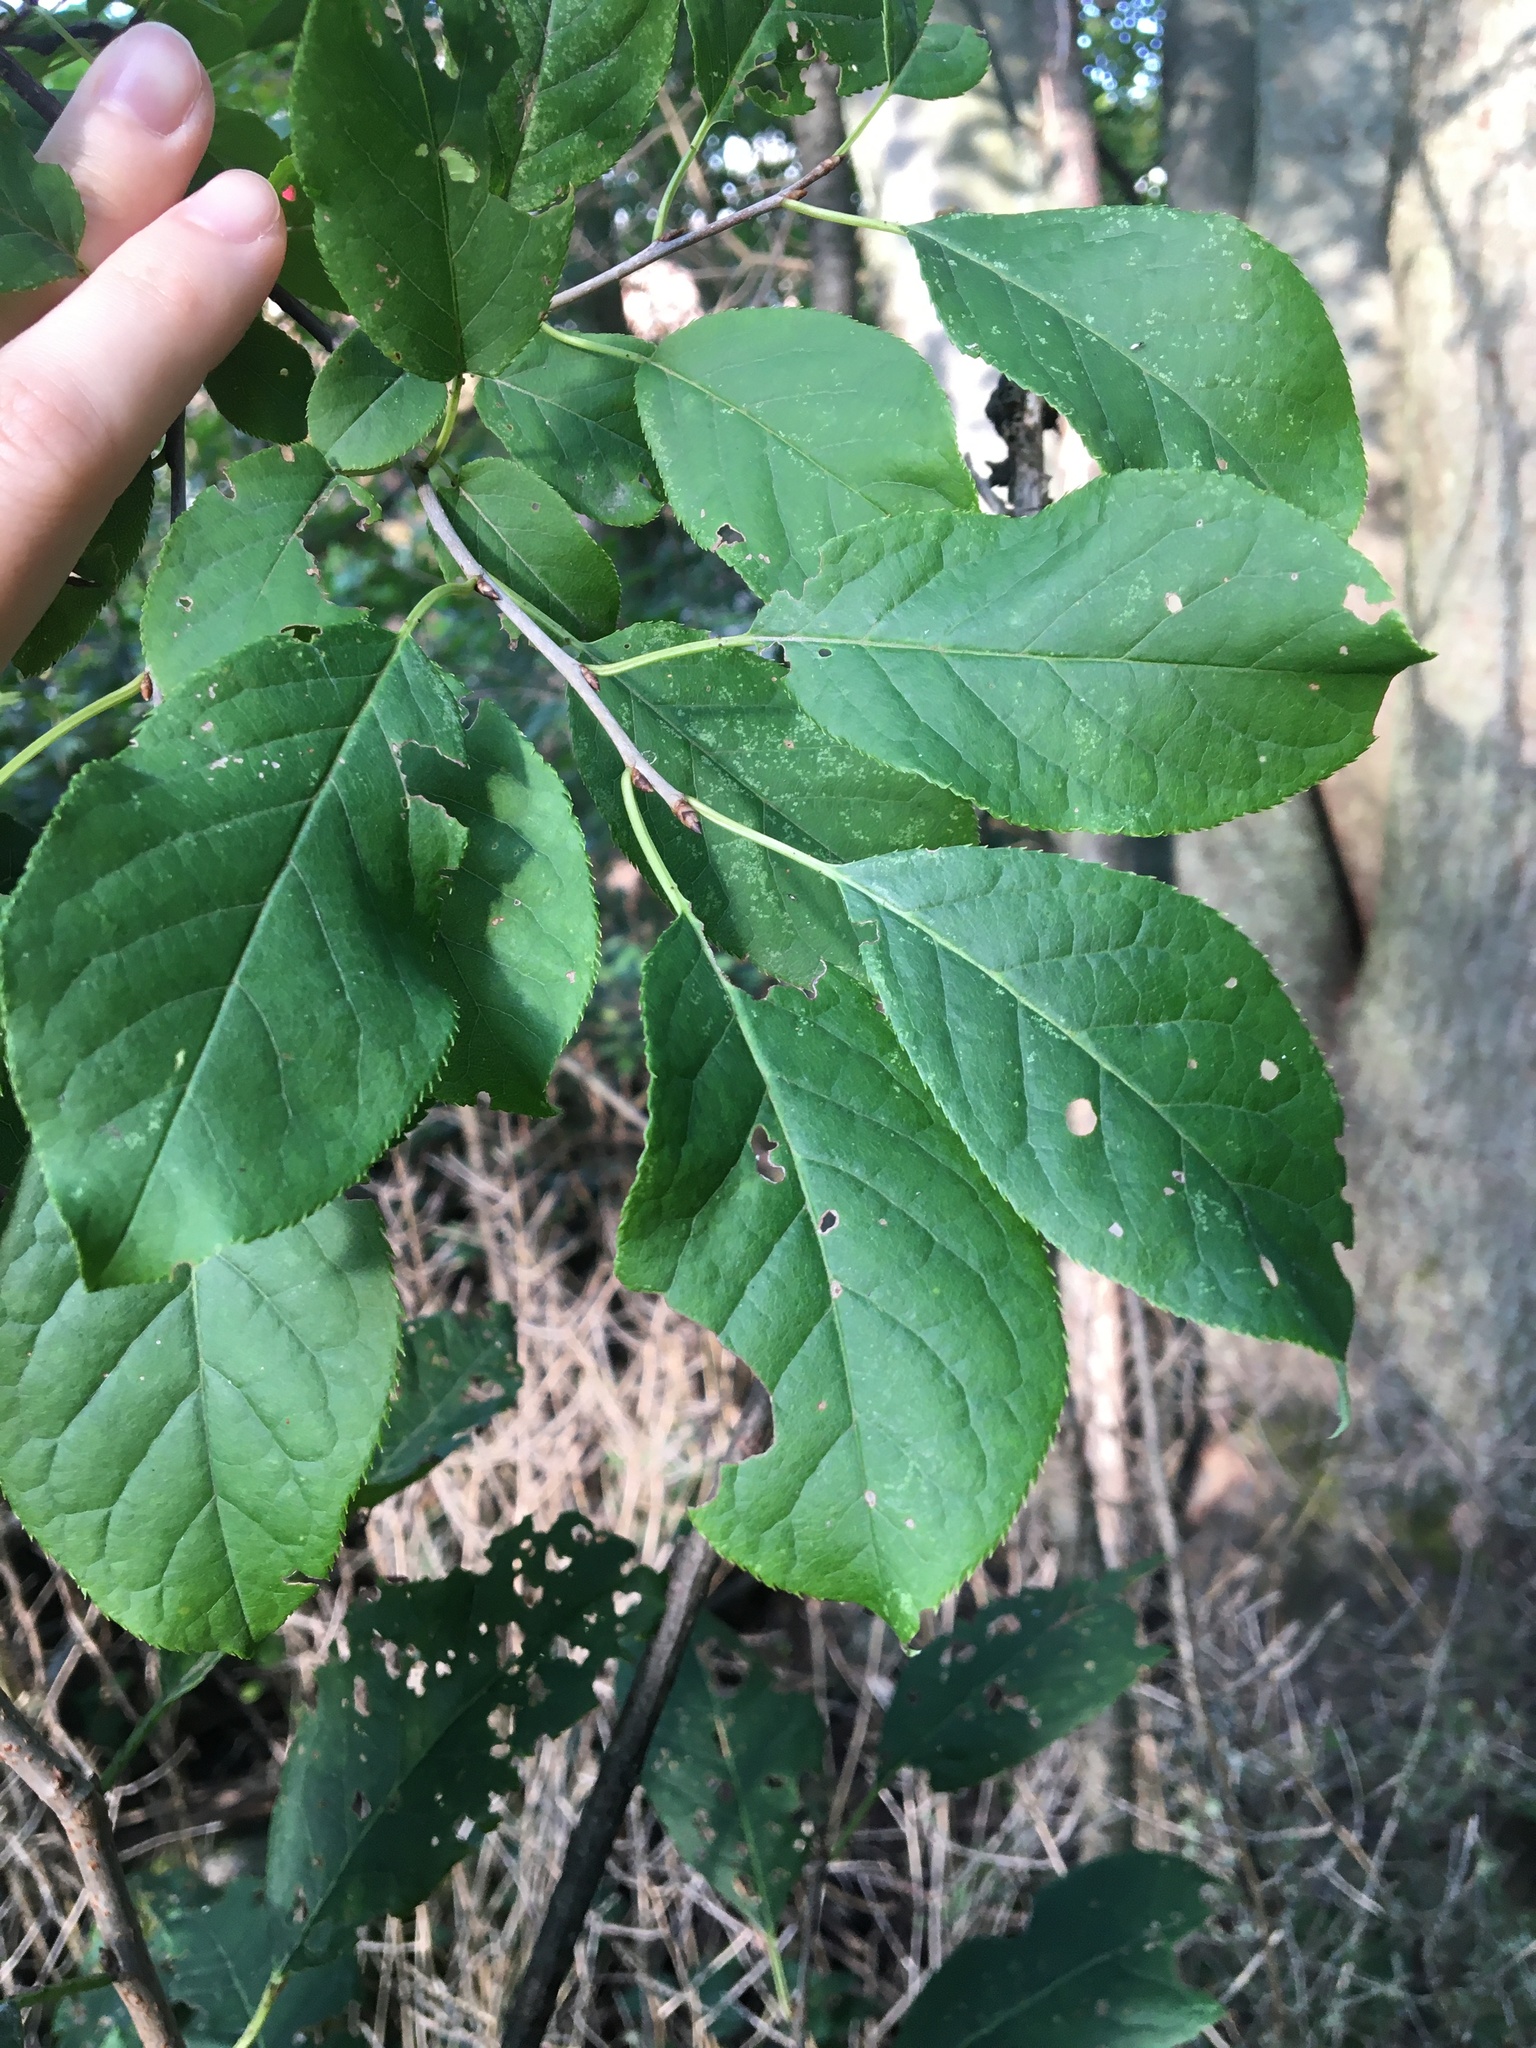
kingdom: Plantae
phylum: Tracheophyta
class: Magnoliopsida
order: Rosales
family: Rosaceae
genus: Prunus
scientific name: Prunus virginiana
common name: Chokecherry
